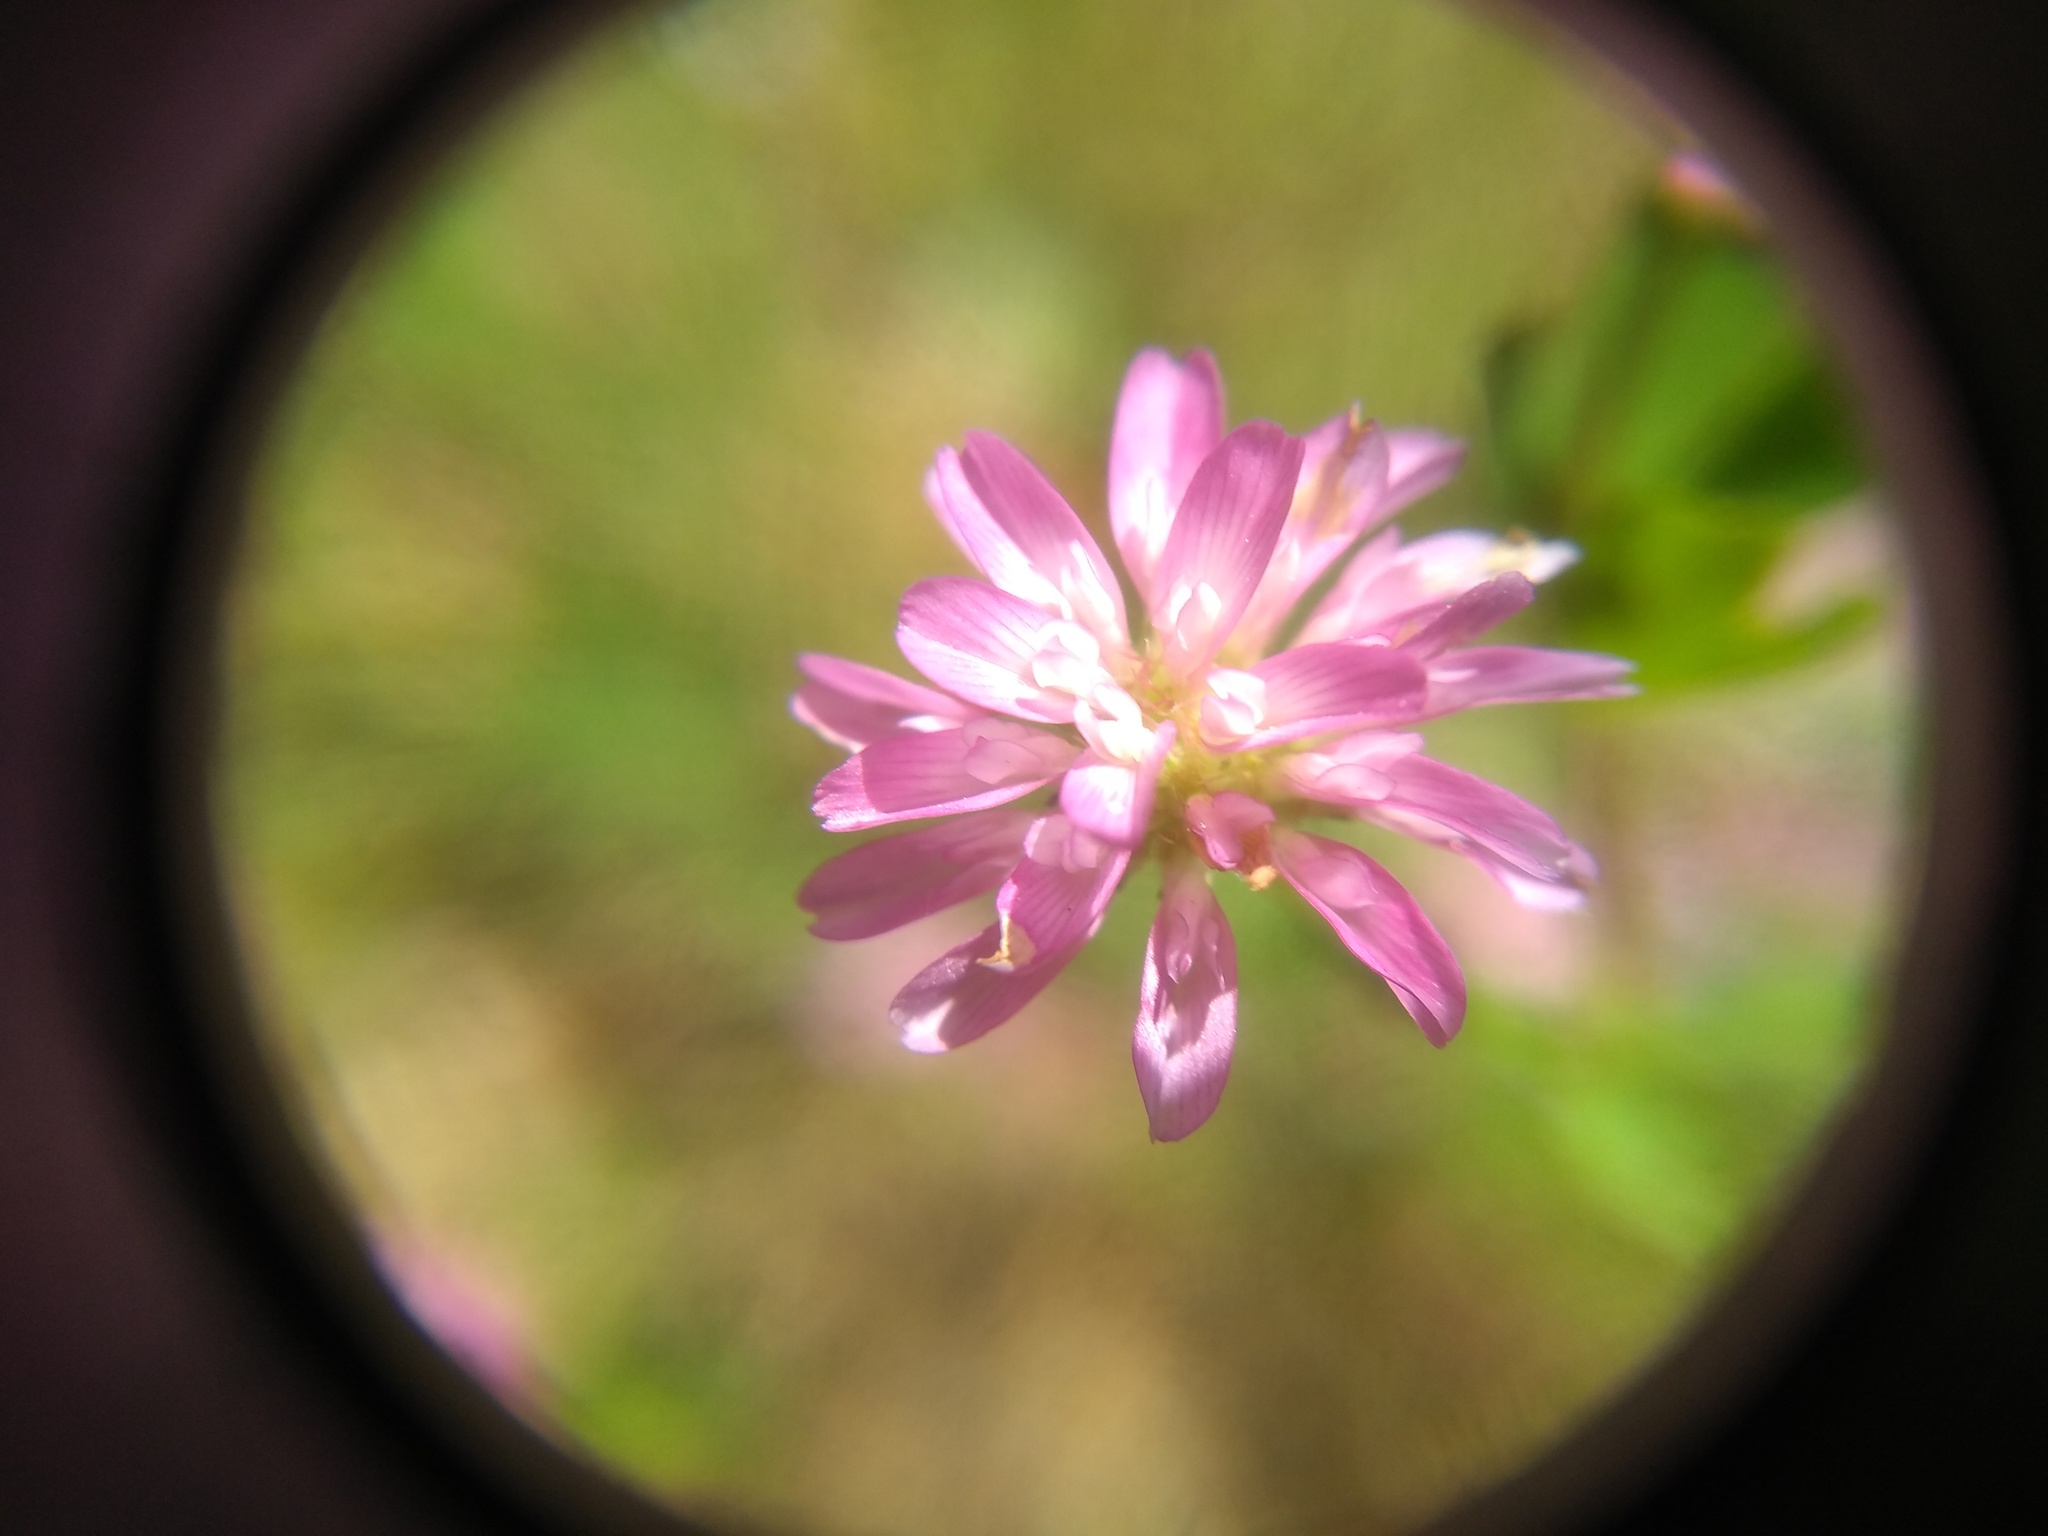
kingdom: Plantae
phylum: Tracheophyta
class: Magnoliopsida
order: Fabales
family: Fabaceae
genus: Trifolium
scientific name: Trifolium resupinatum
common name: Reversed clover
